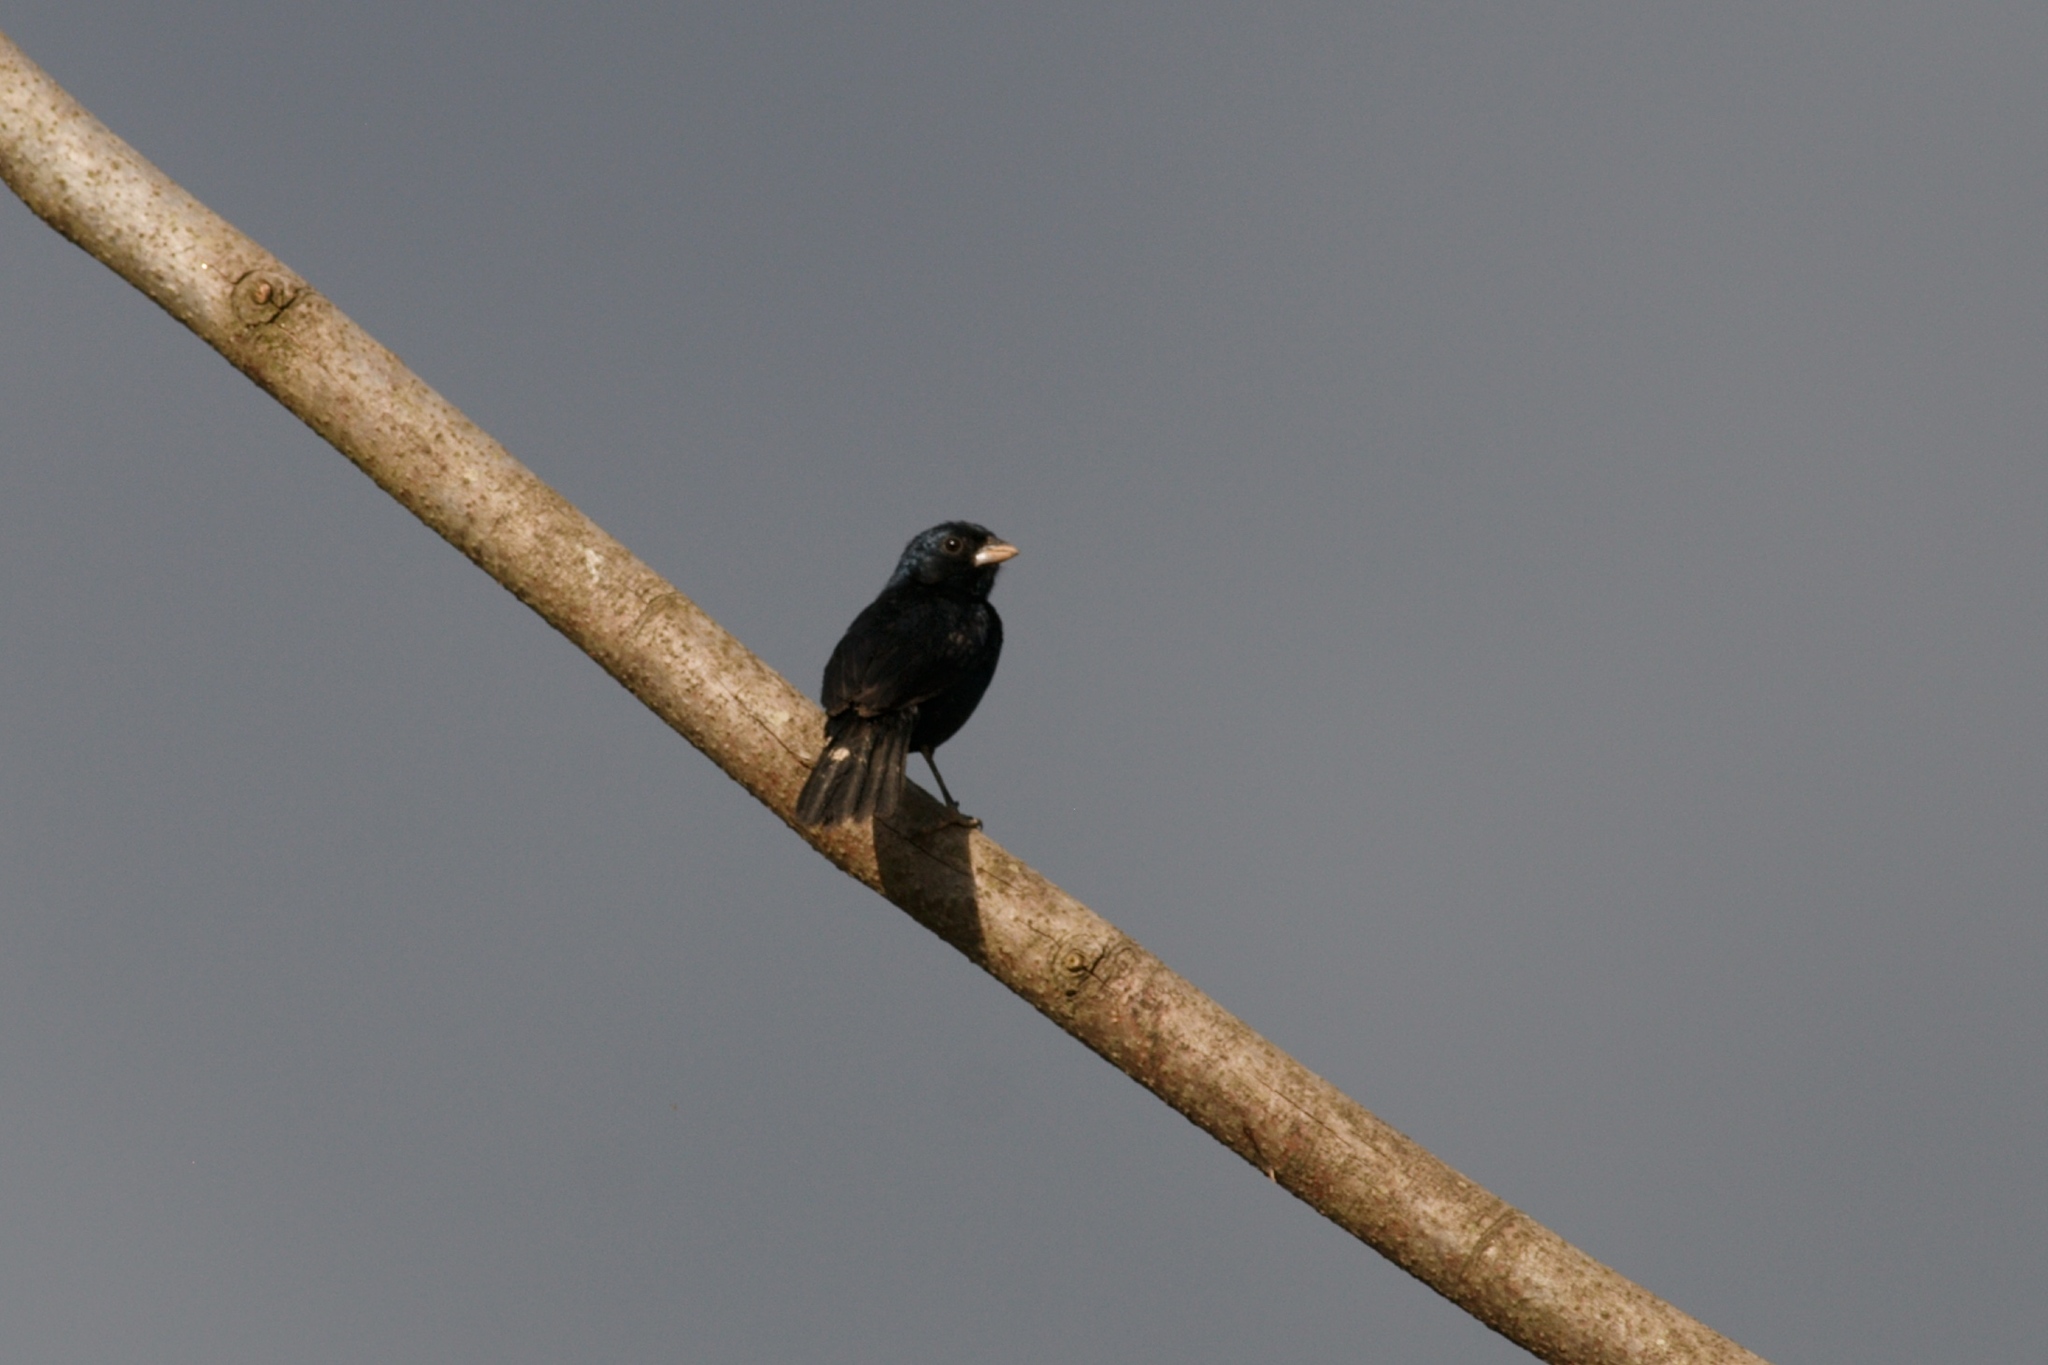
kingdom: Animalia
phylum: Chordata
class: Aves
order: Passeriformes
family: Thraupidae
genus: Volatinia
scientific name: Volatinia jacarina
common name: Blue-black grassquit
